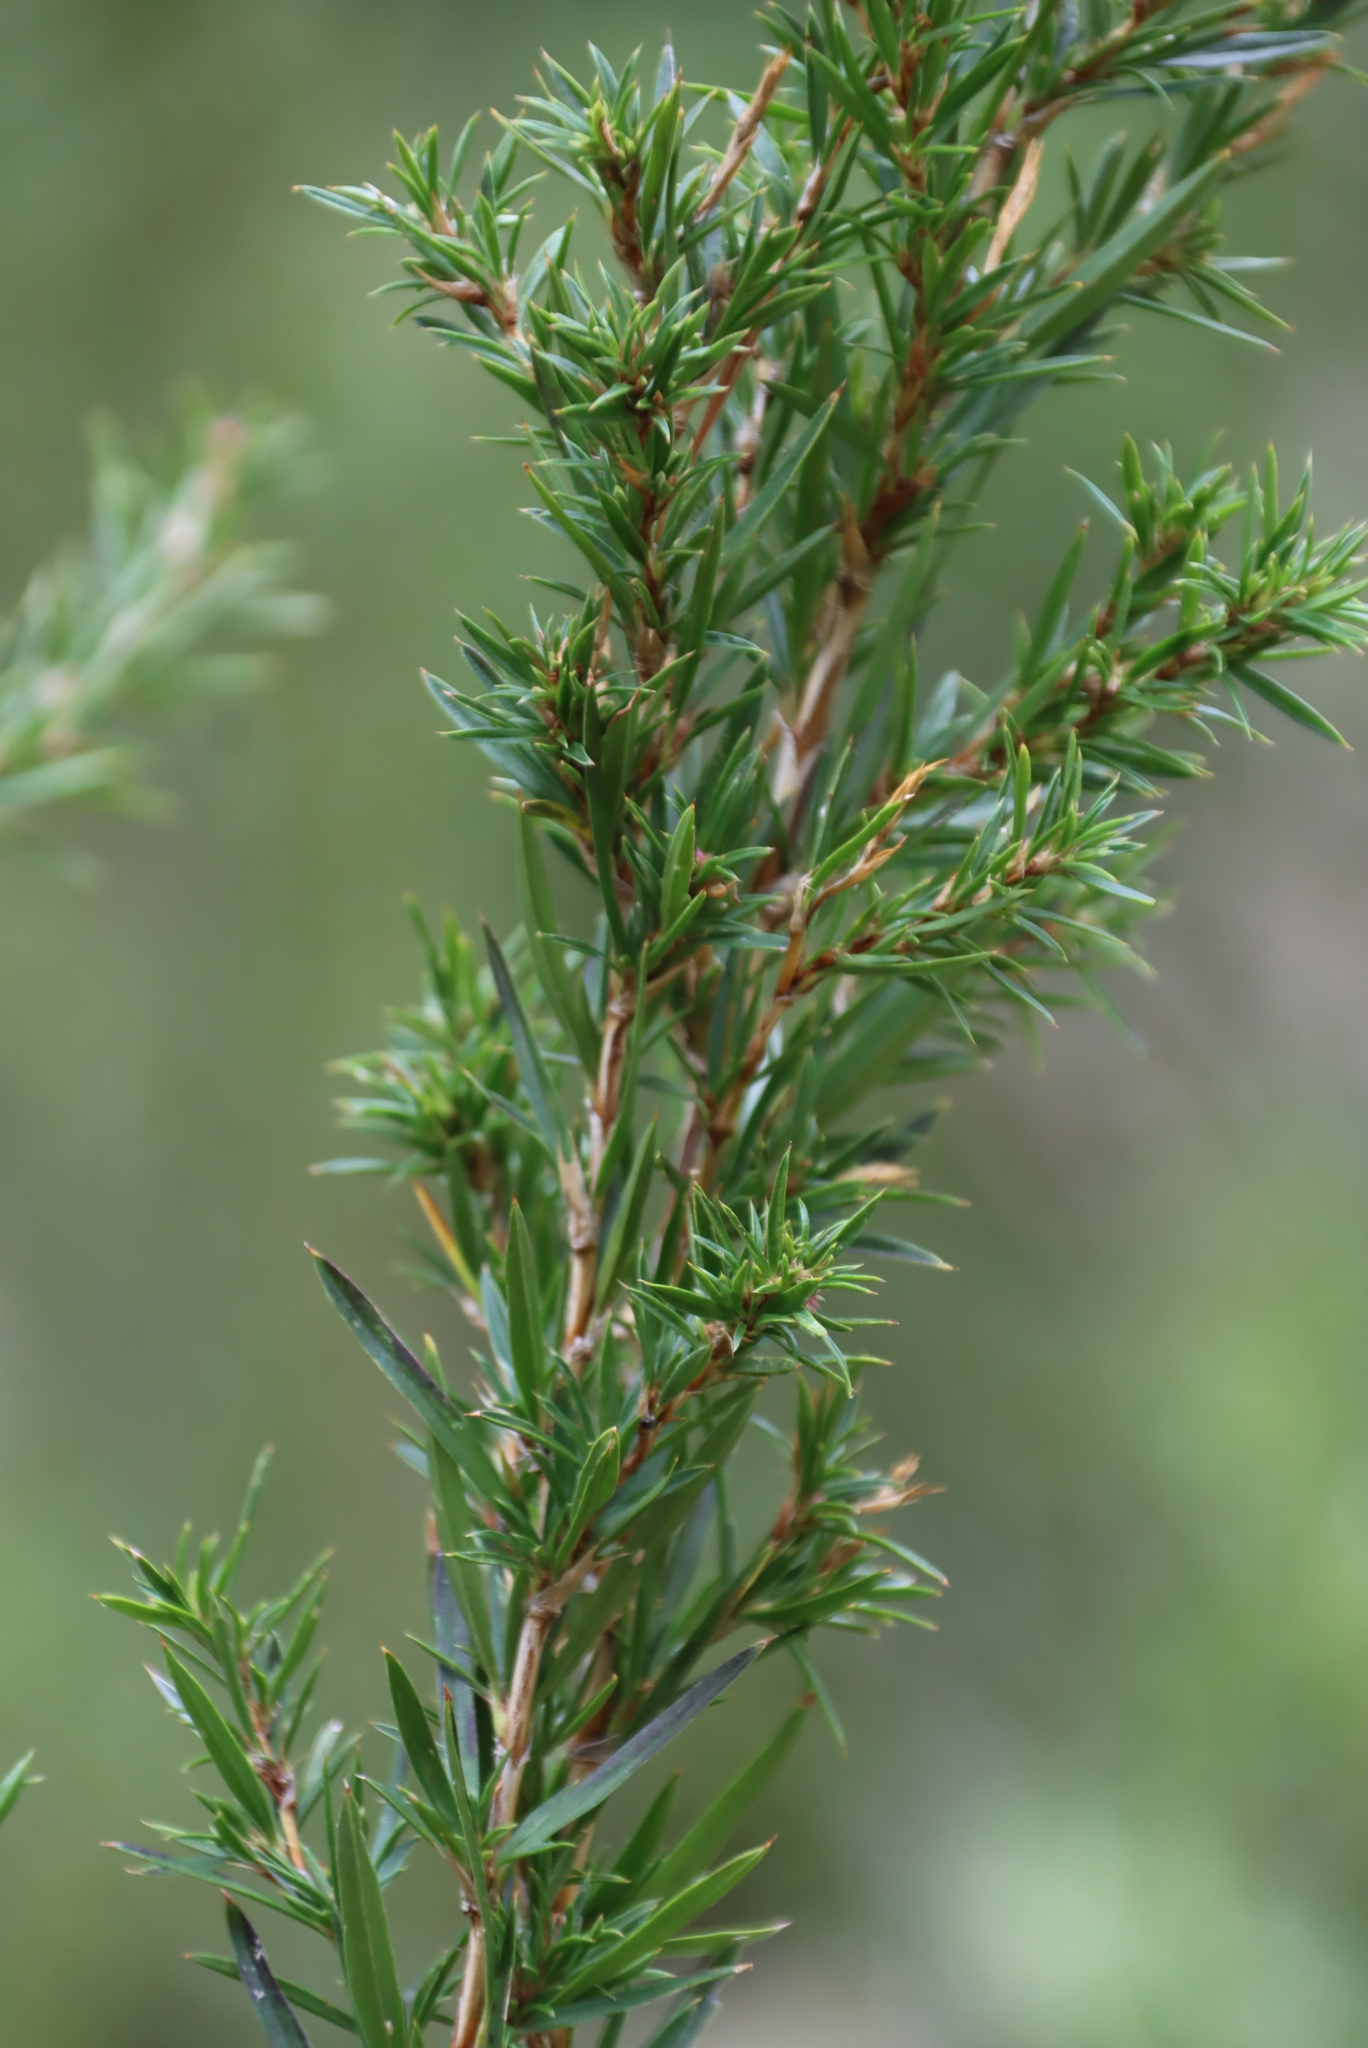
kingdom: Plantae
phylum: Tracheophyta
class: Magnoliopsida
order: Rosales
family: Rosaceae
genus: Cliffortia
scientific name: Cliffortia strobilifera
